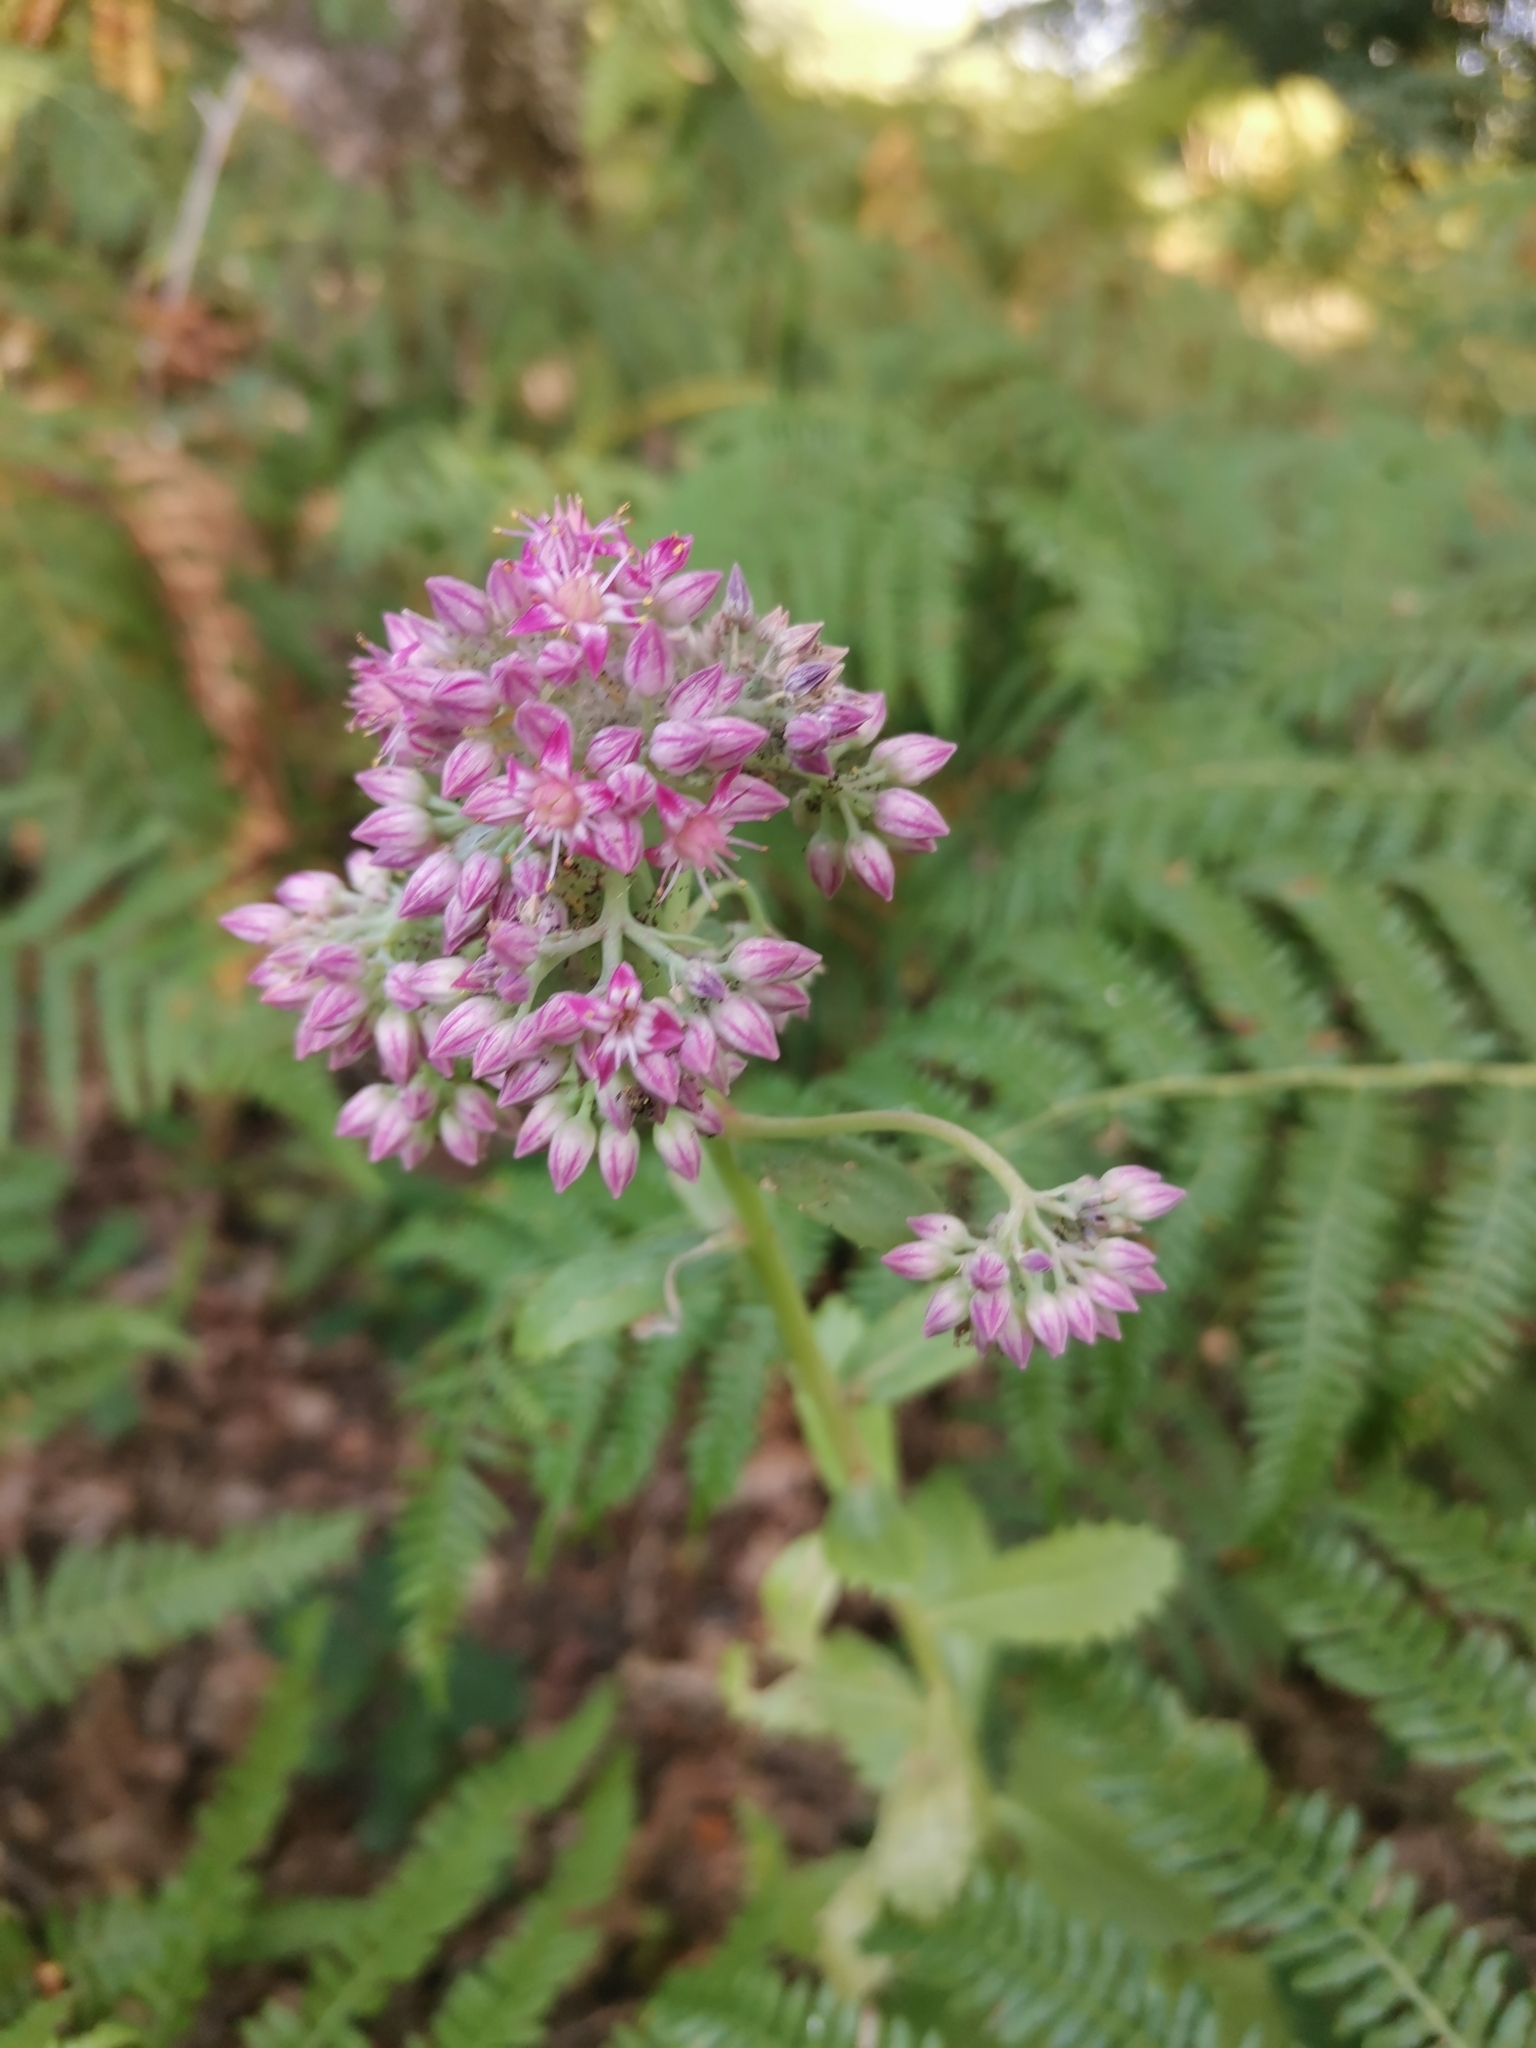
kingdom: Plantae
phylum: Tracheophyta
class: Magnoliopsida
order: Saxifragales
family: Crassulaceae
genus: Hylotelephium
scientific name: Hylotelephium telephium
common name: Live-forever
